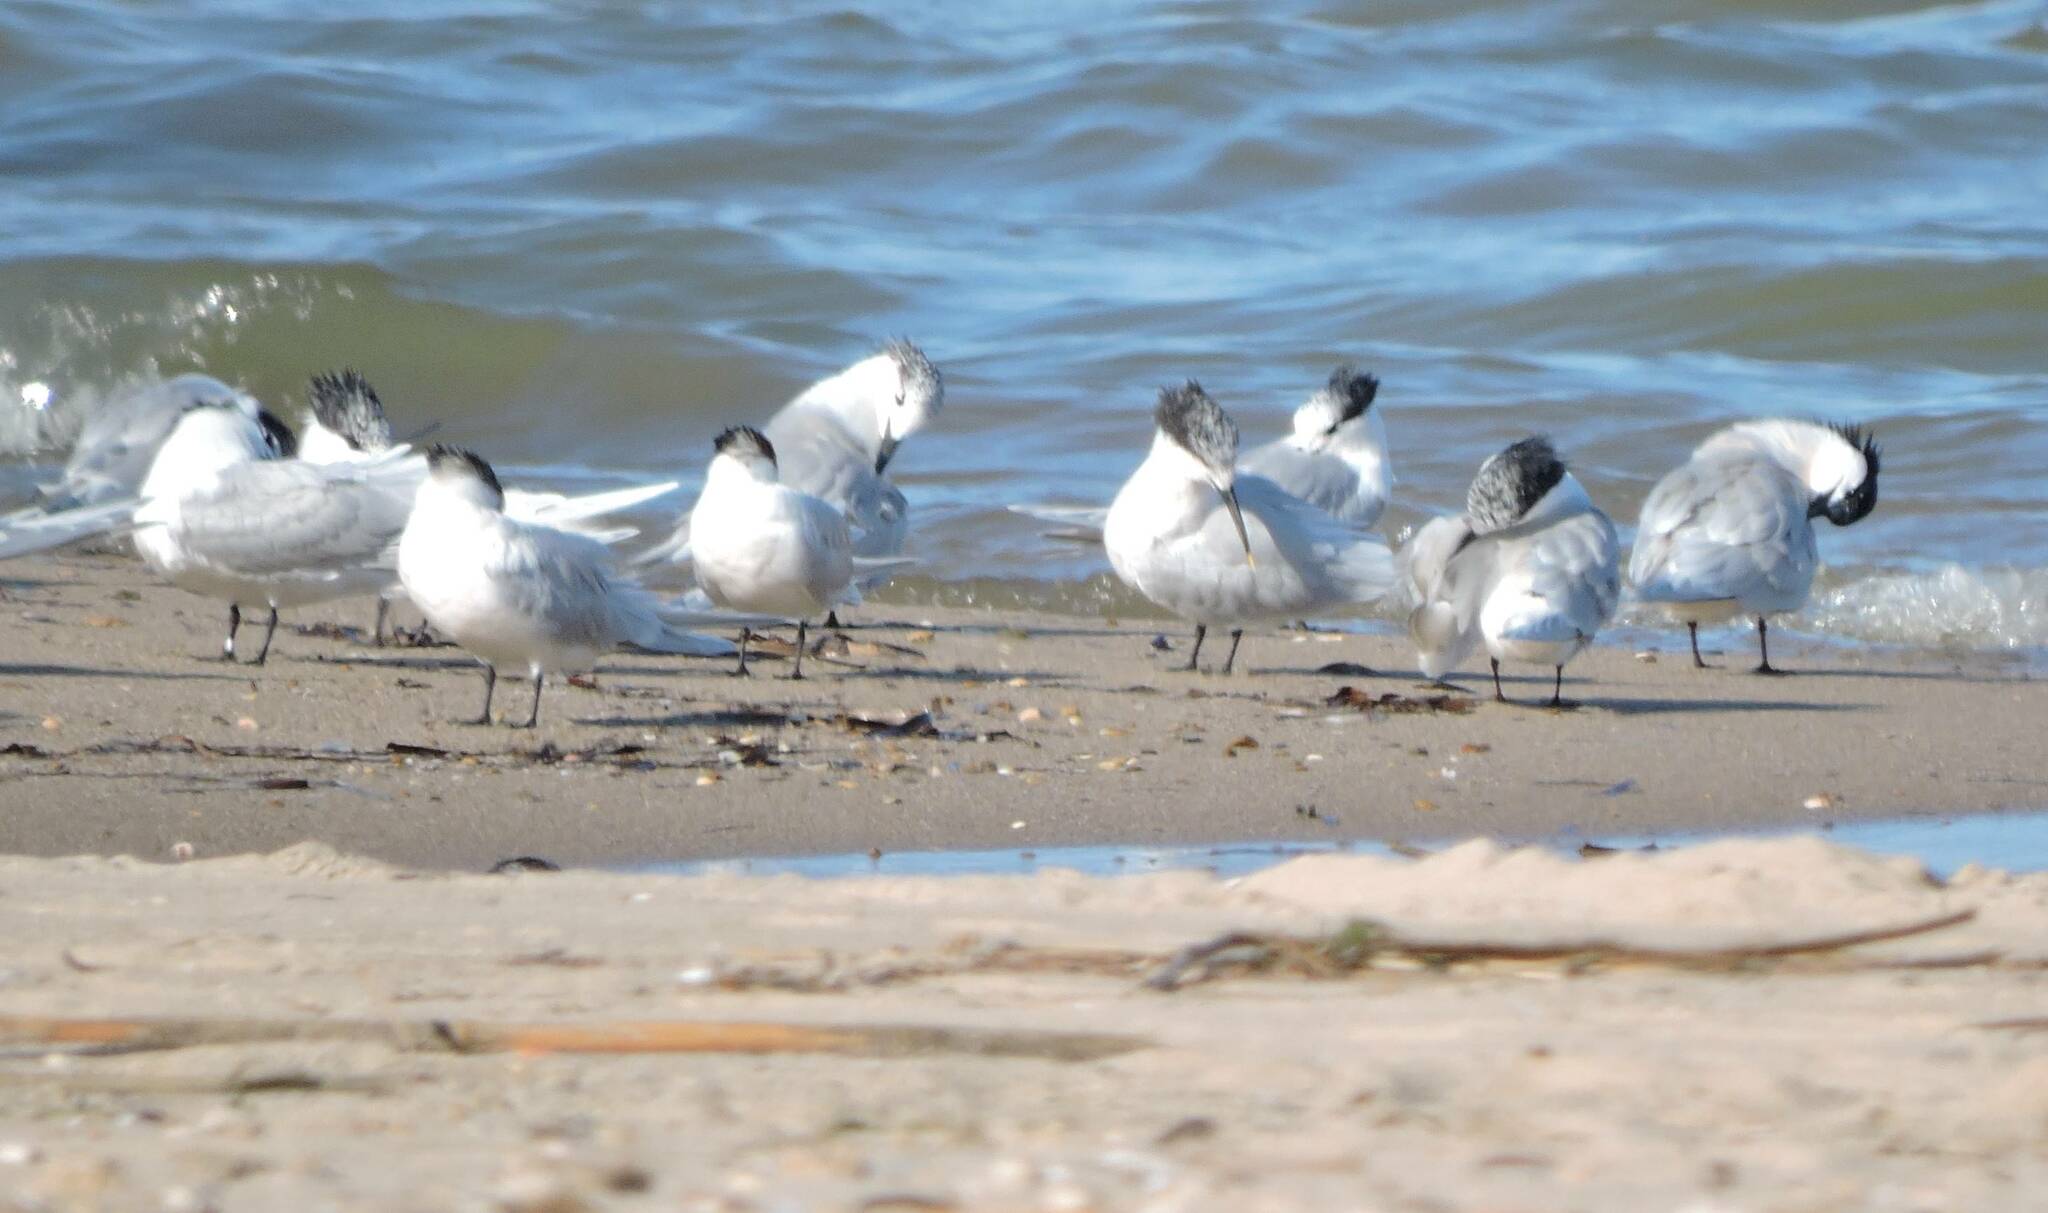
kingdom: Animalia
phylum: Chordata
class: Aves
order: Charadriiformes
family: Laridae
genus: Thalasseus
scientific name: Thalasseus sandvicensis
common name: Sandwich tern
